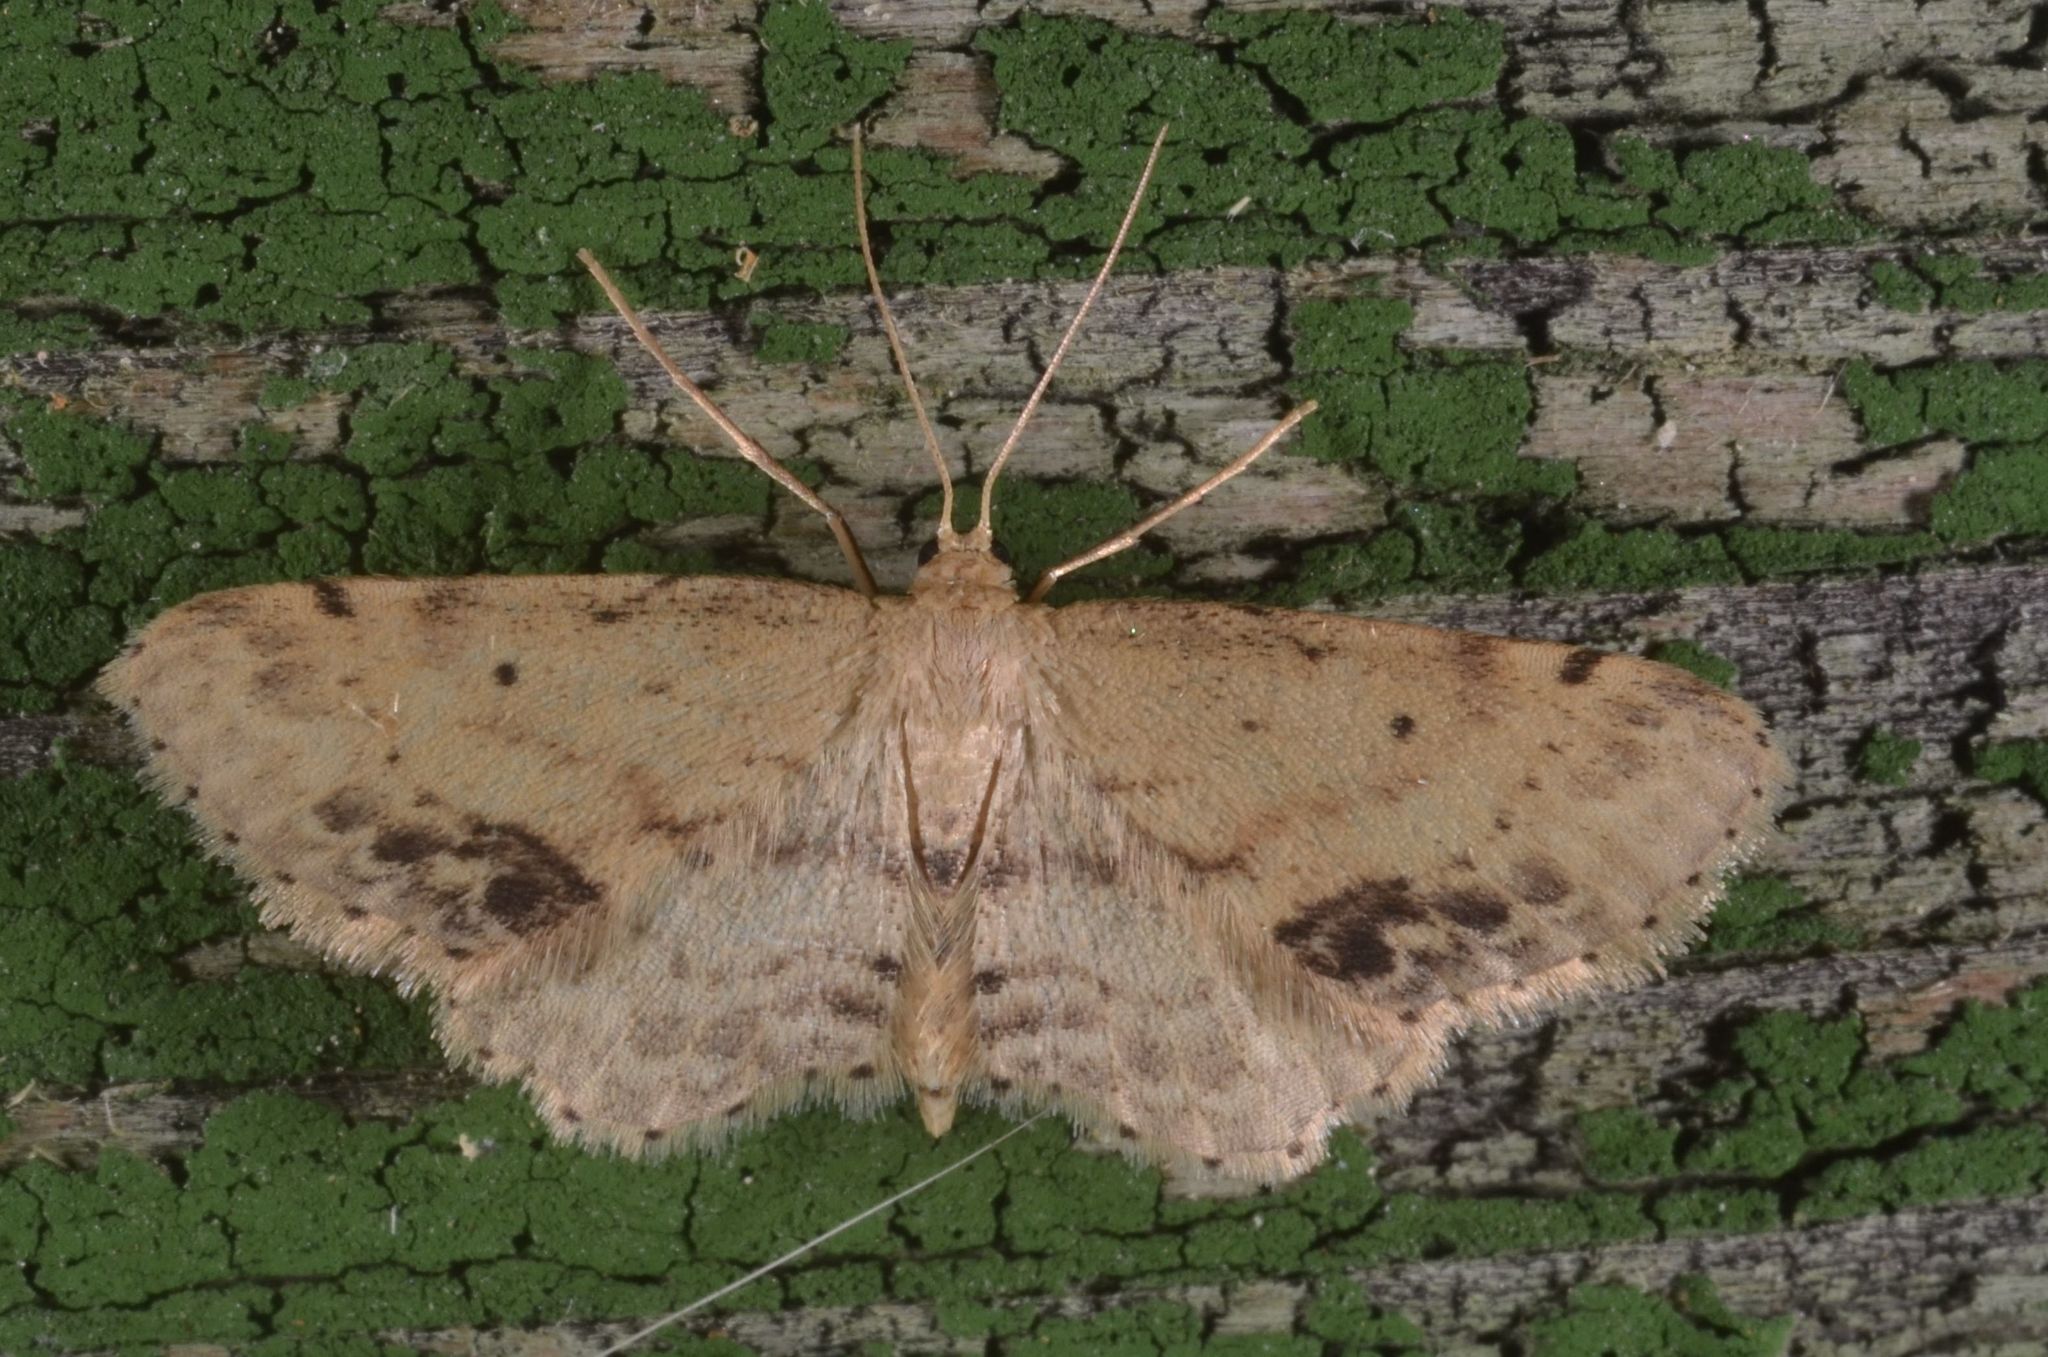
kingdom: Animalia
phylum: Arthropoda
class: Insecta
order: Lepidoptera
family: Geometridae
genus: Idaea
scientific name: Idaea dimidiata
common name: Single-dotted wave
